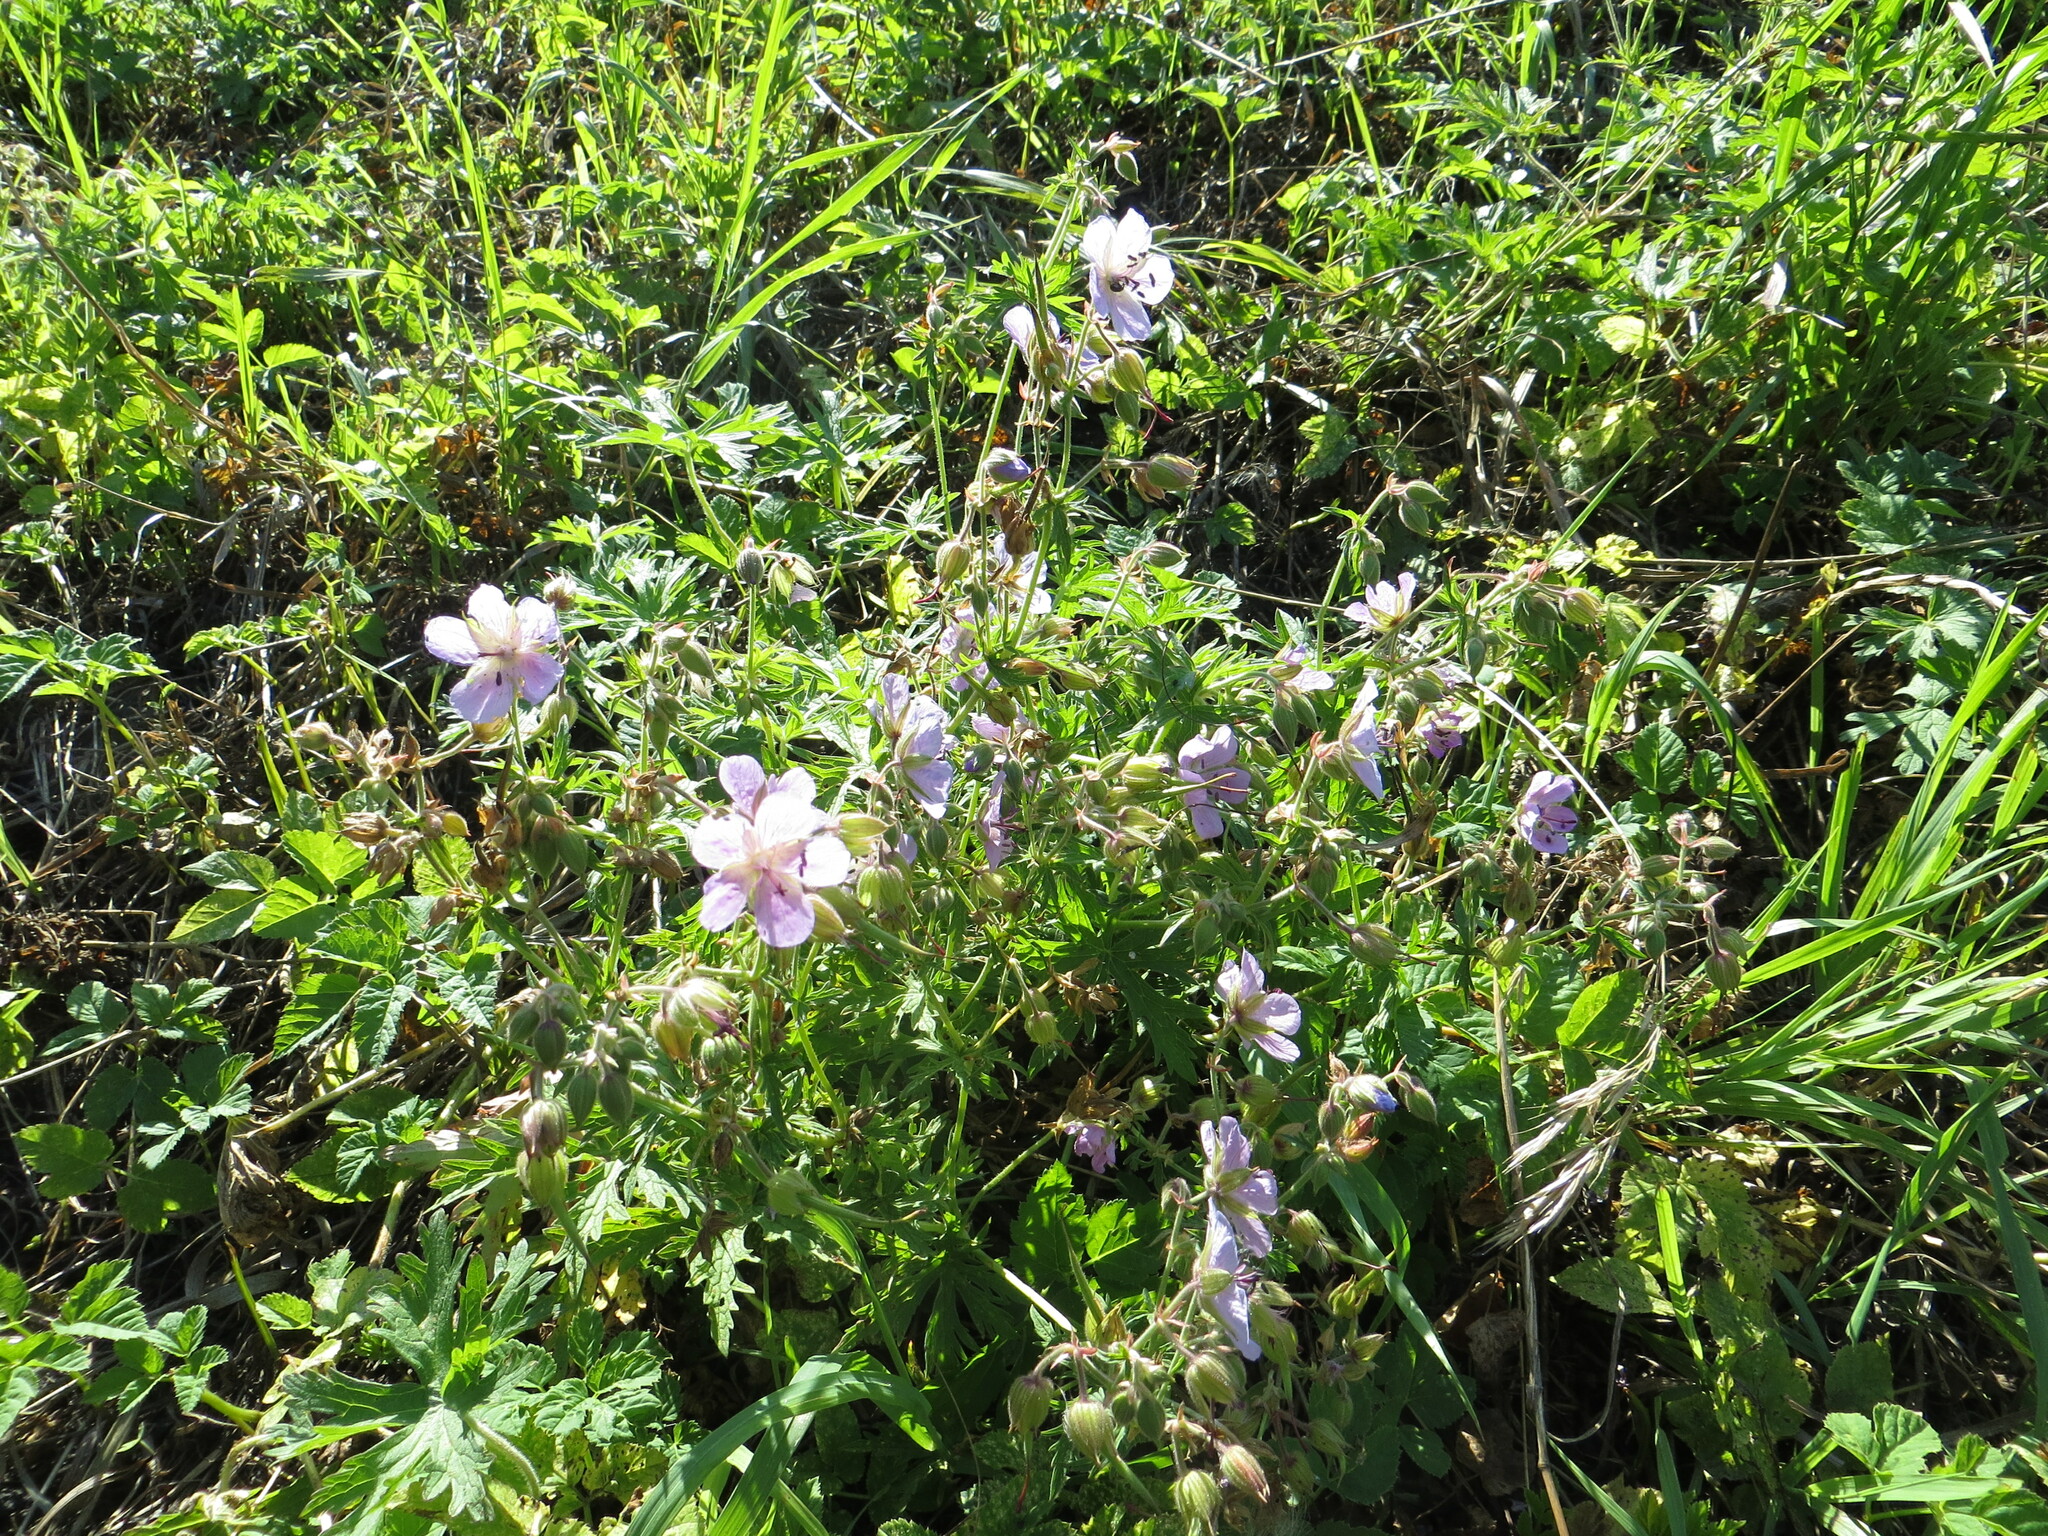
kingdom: Plantae
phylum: Tracheophyta
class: Magnoliopsida
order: Geraniales
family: Geraniaceae
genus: Geranium
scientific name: Geranium pratense
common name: Meadow crane's-bill
